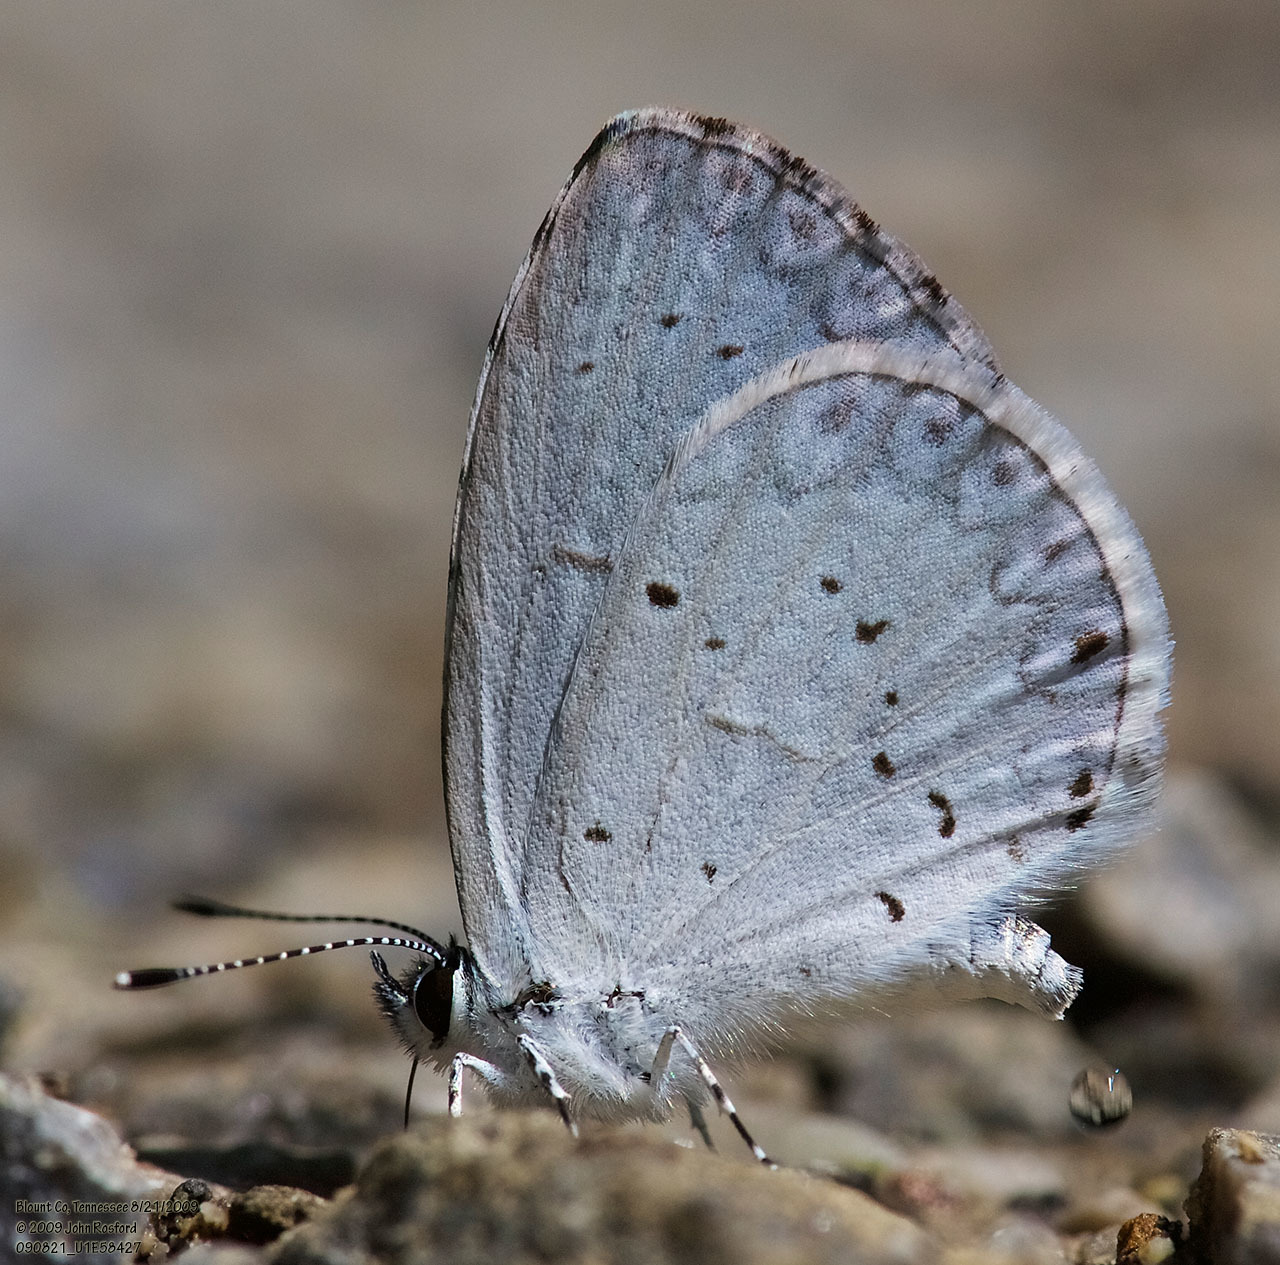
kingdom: Animalia
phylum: Arthropoda
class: Insecta
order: Lepidoptera
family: Lycaenidae
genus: Cyaniris
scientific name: Cyaniris neglecta
